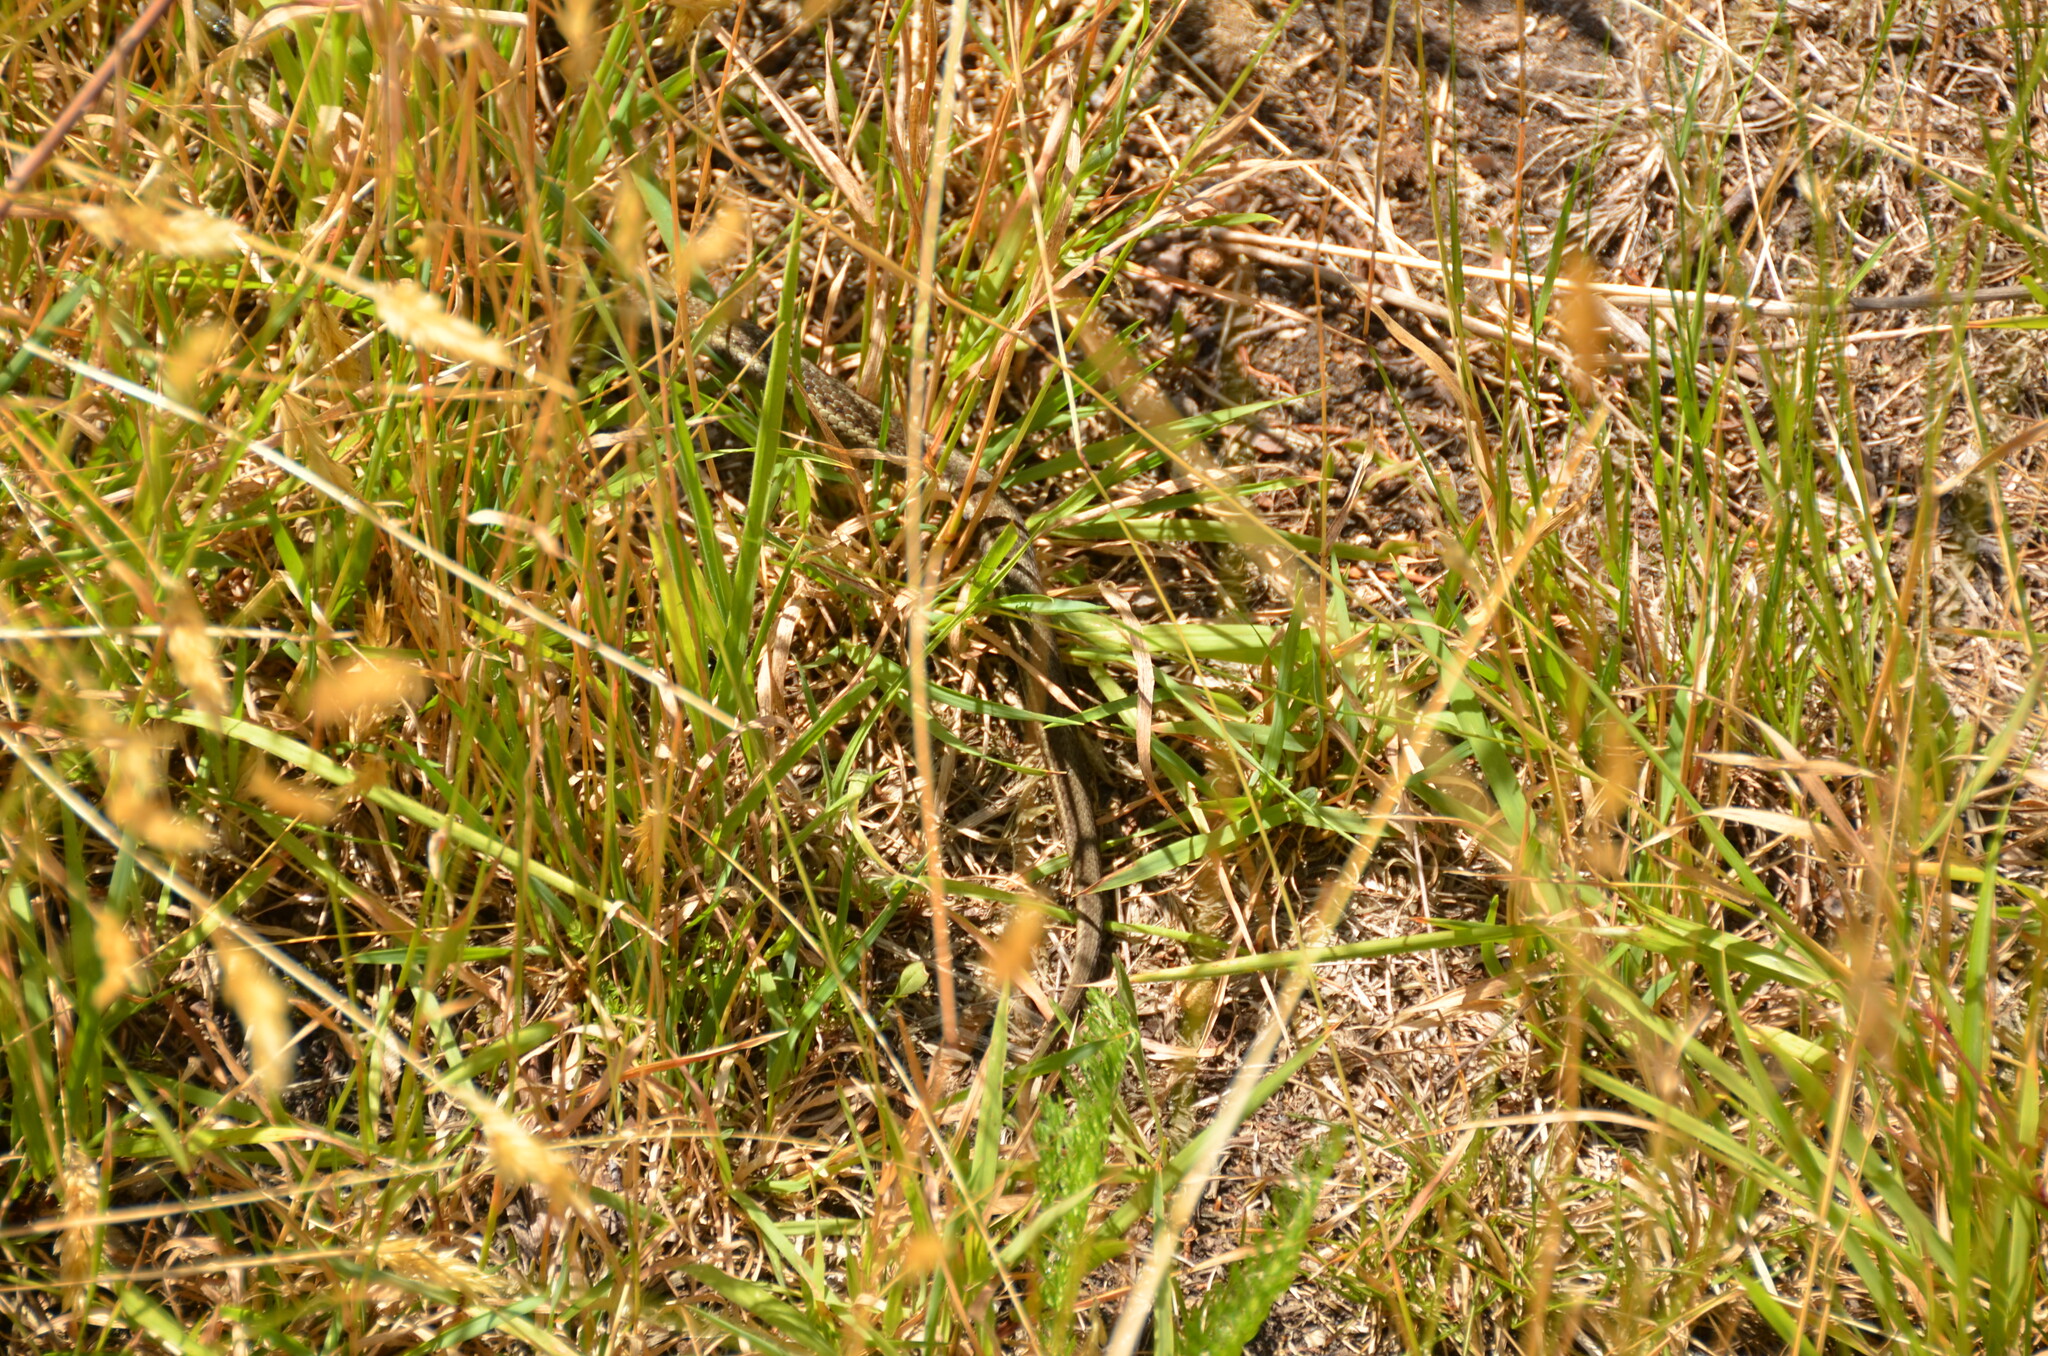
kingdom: Animalia
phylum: Chordata
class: Squamata
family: Colubridae
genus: Thamnophis
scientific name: Thamnophis ordinoides
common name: Northwestern garter snake
